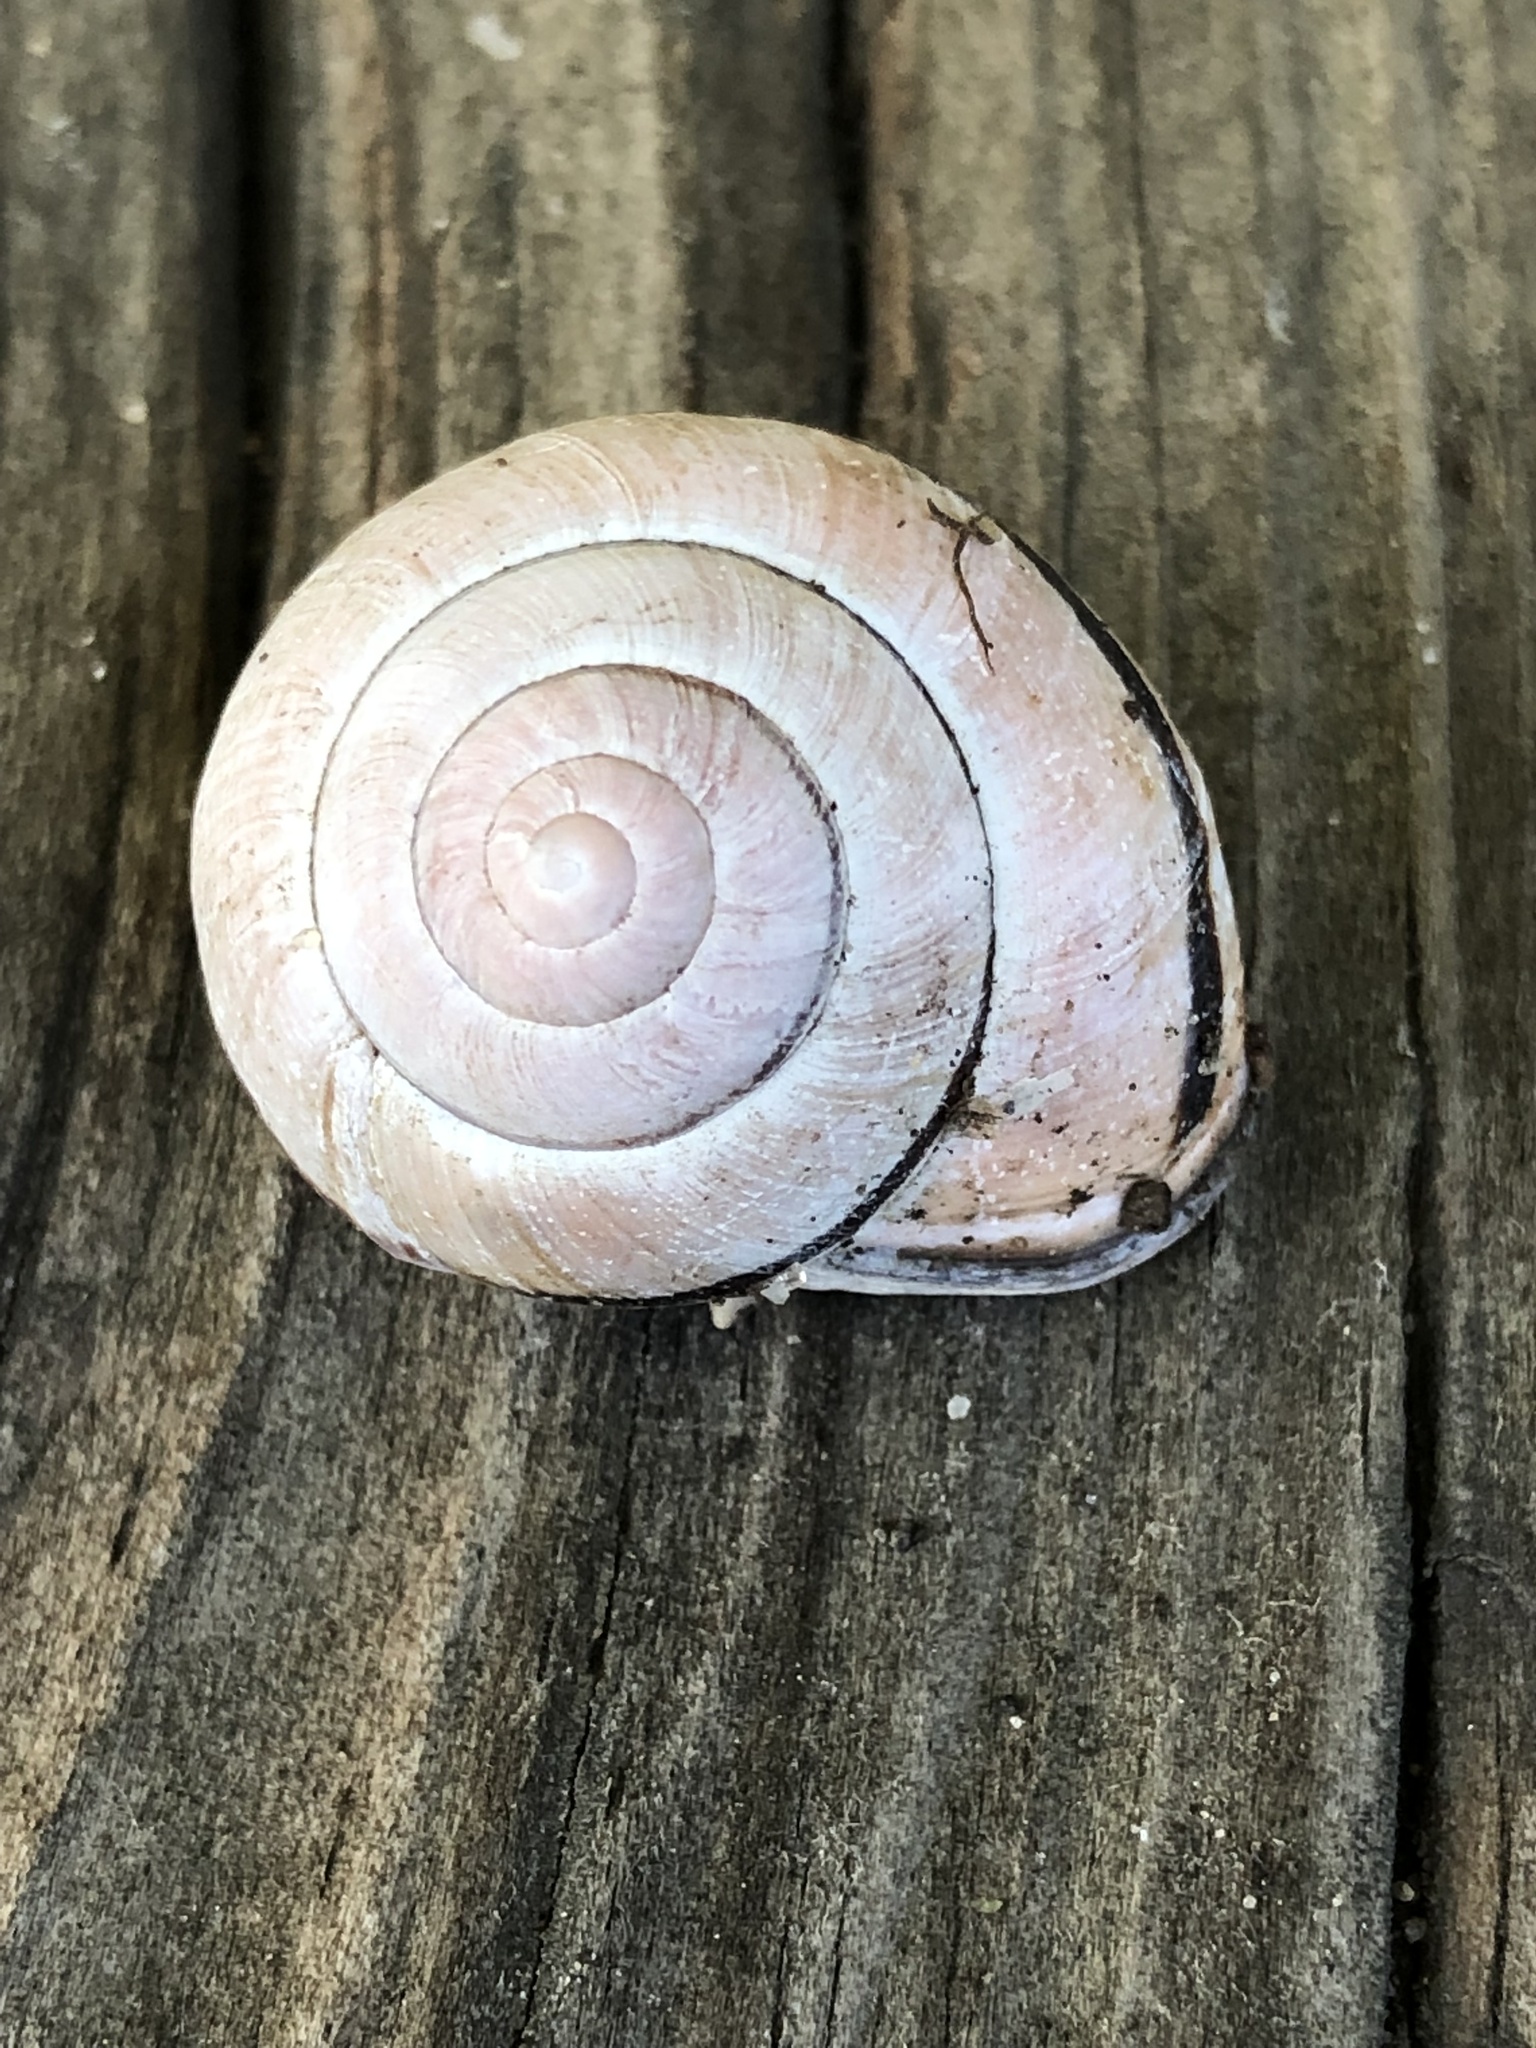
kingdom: Animalia
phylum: Mollusca
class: Gastropoda
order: Stylommatophora
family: Helicidae
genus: Cepaea
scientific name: Cepaea nemoralis
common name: Grovesnail
